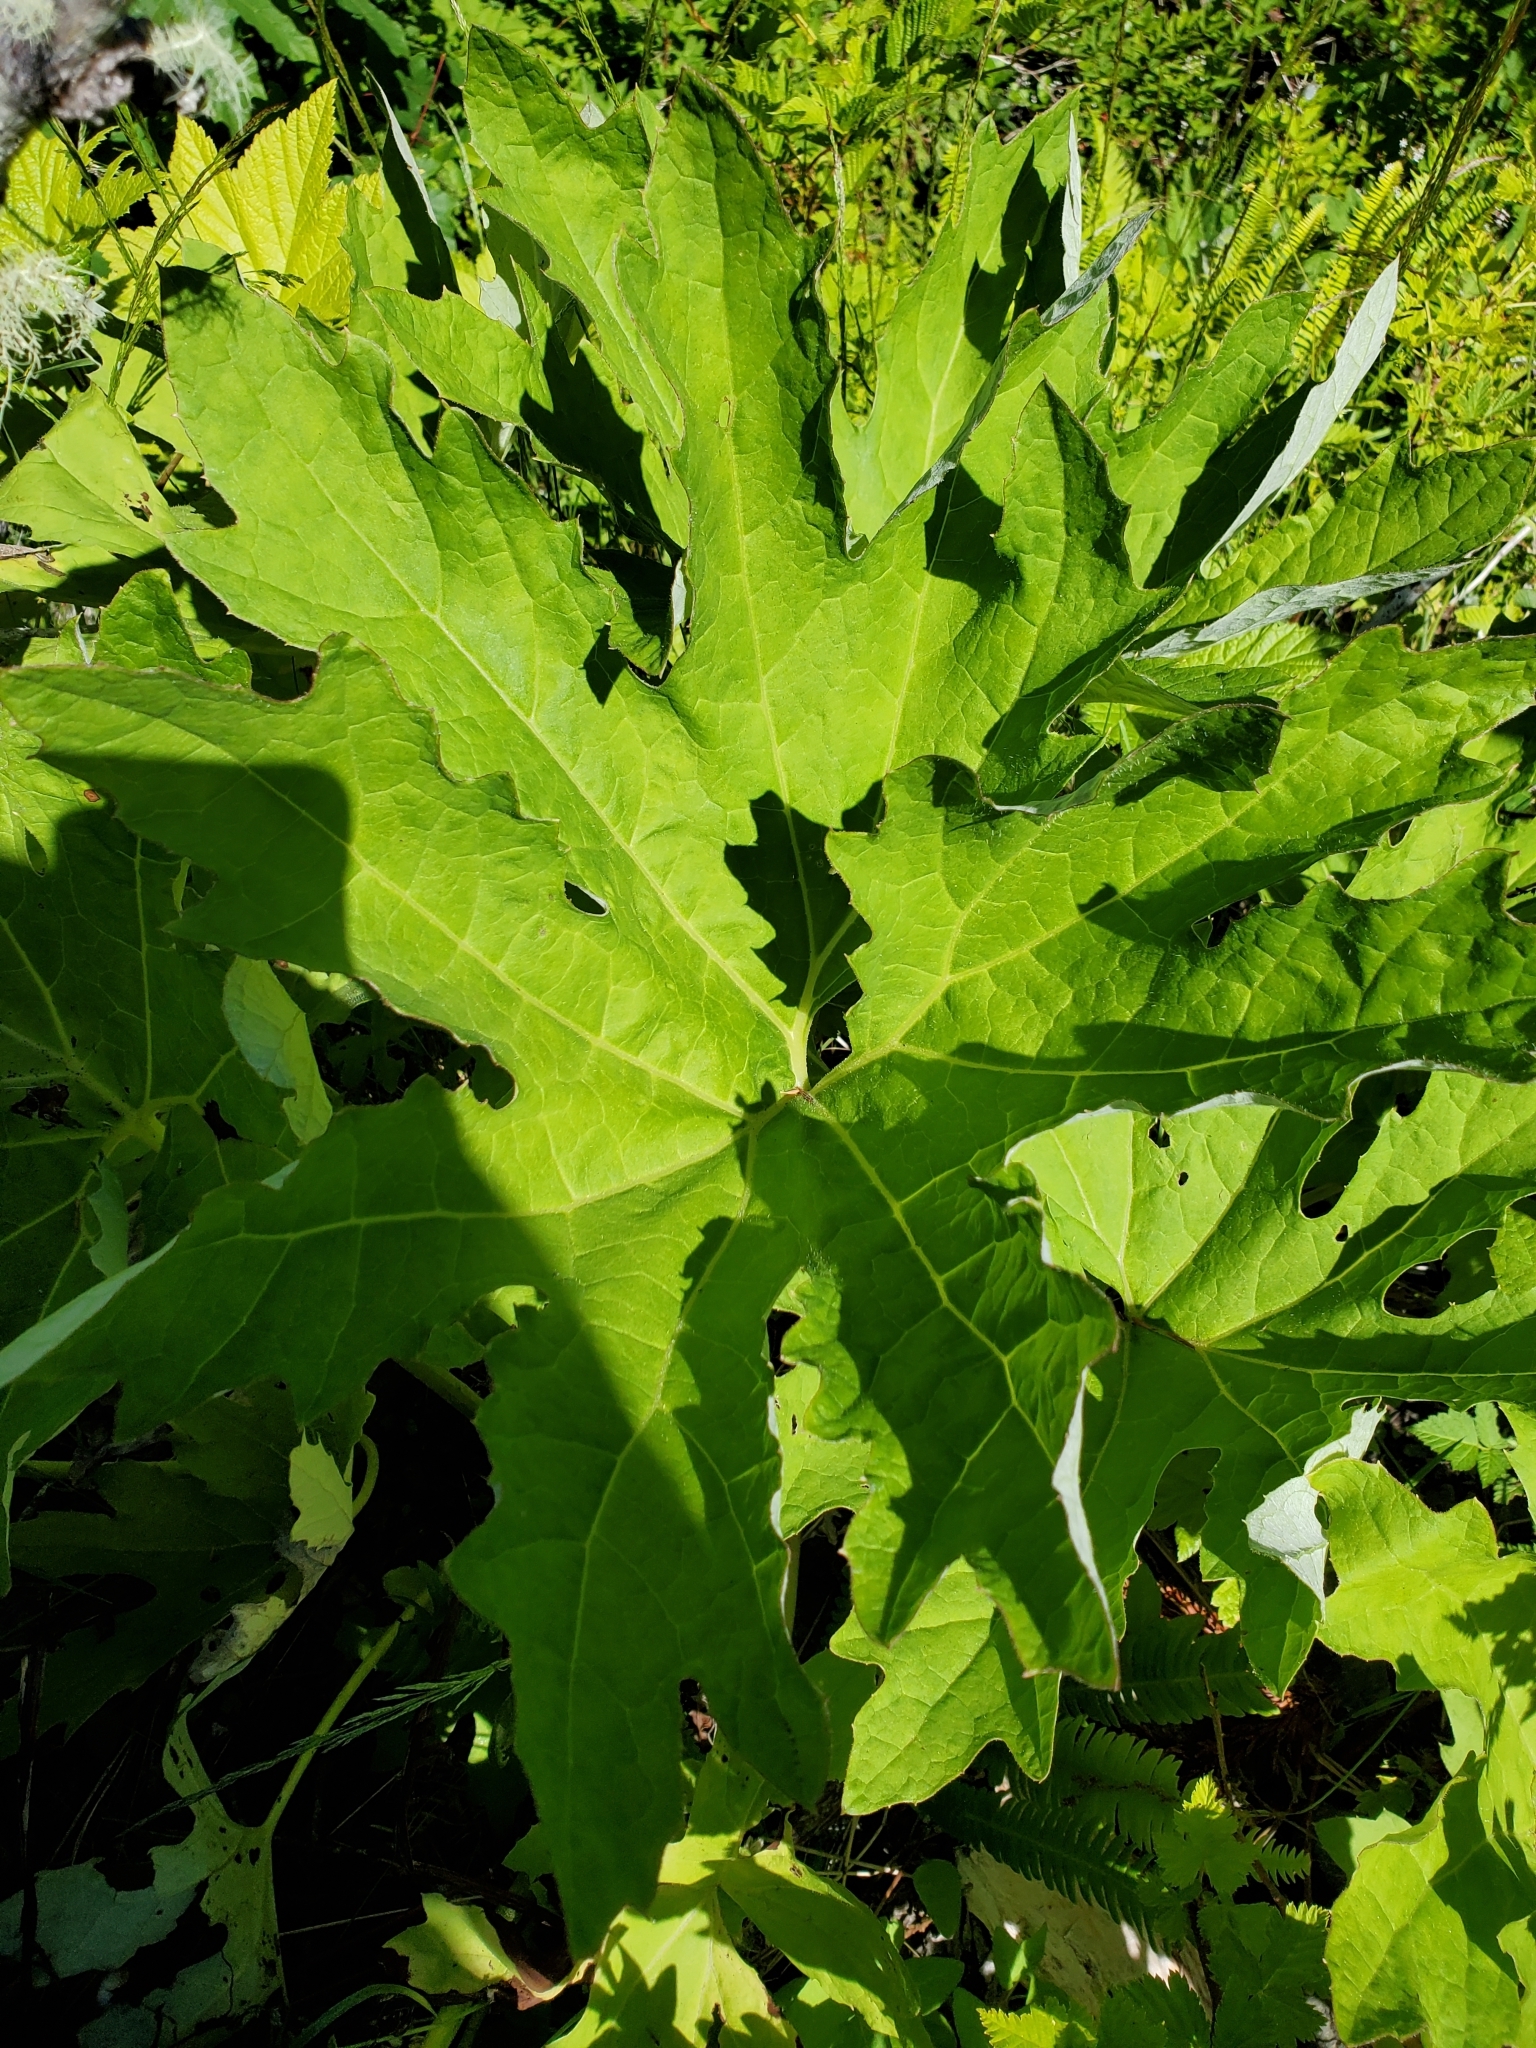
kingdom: Plantae
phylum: Tracheophyta
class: Magnoliopsida
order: Asterales
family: Asteraceae
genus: Petasites
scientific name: Petasites frigidus
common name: Arctic butterbur
